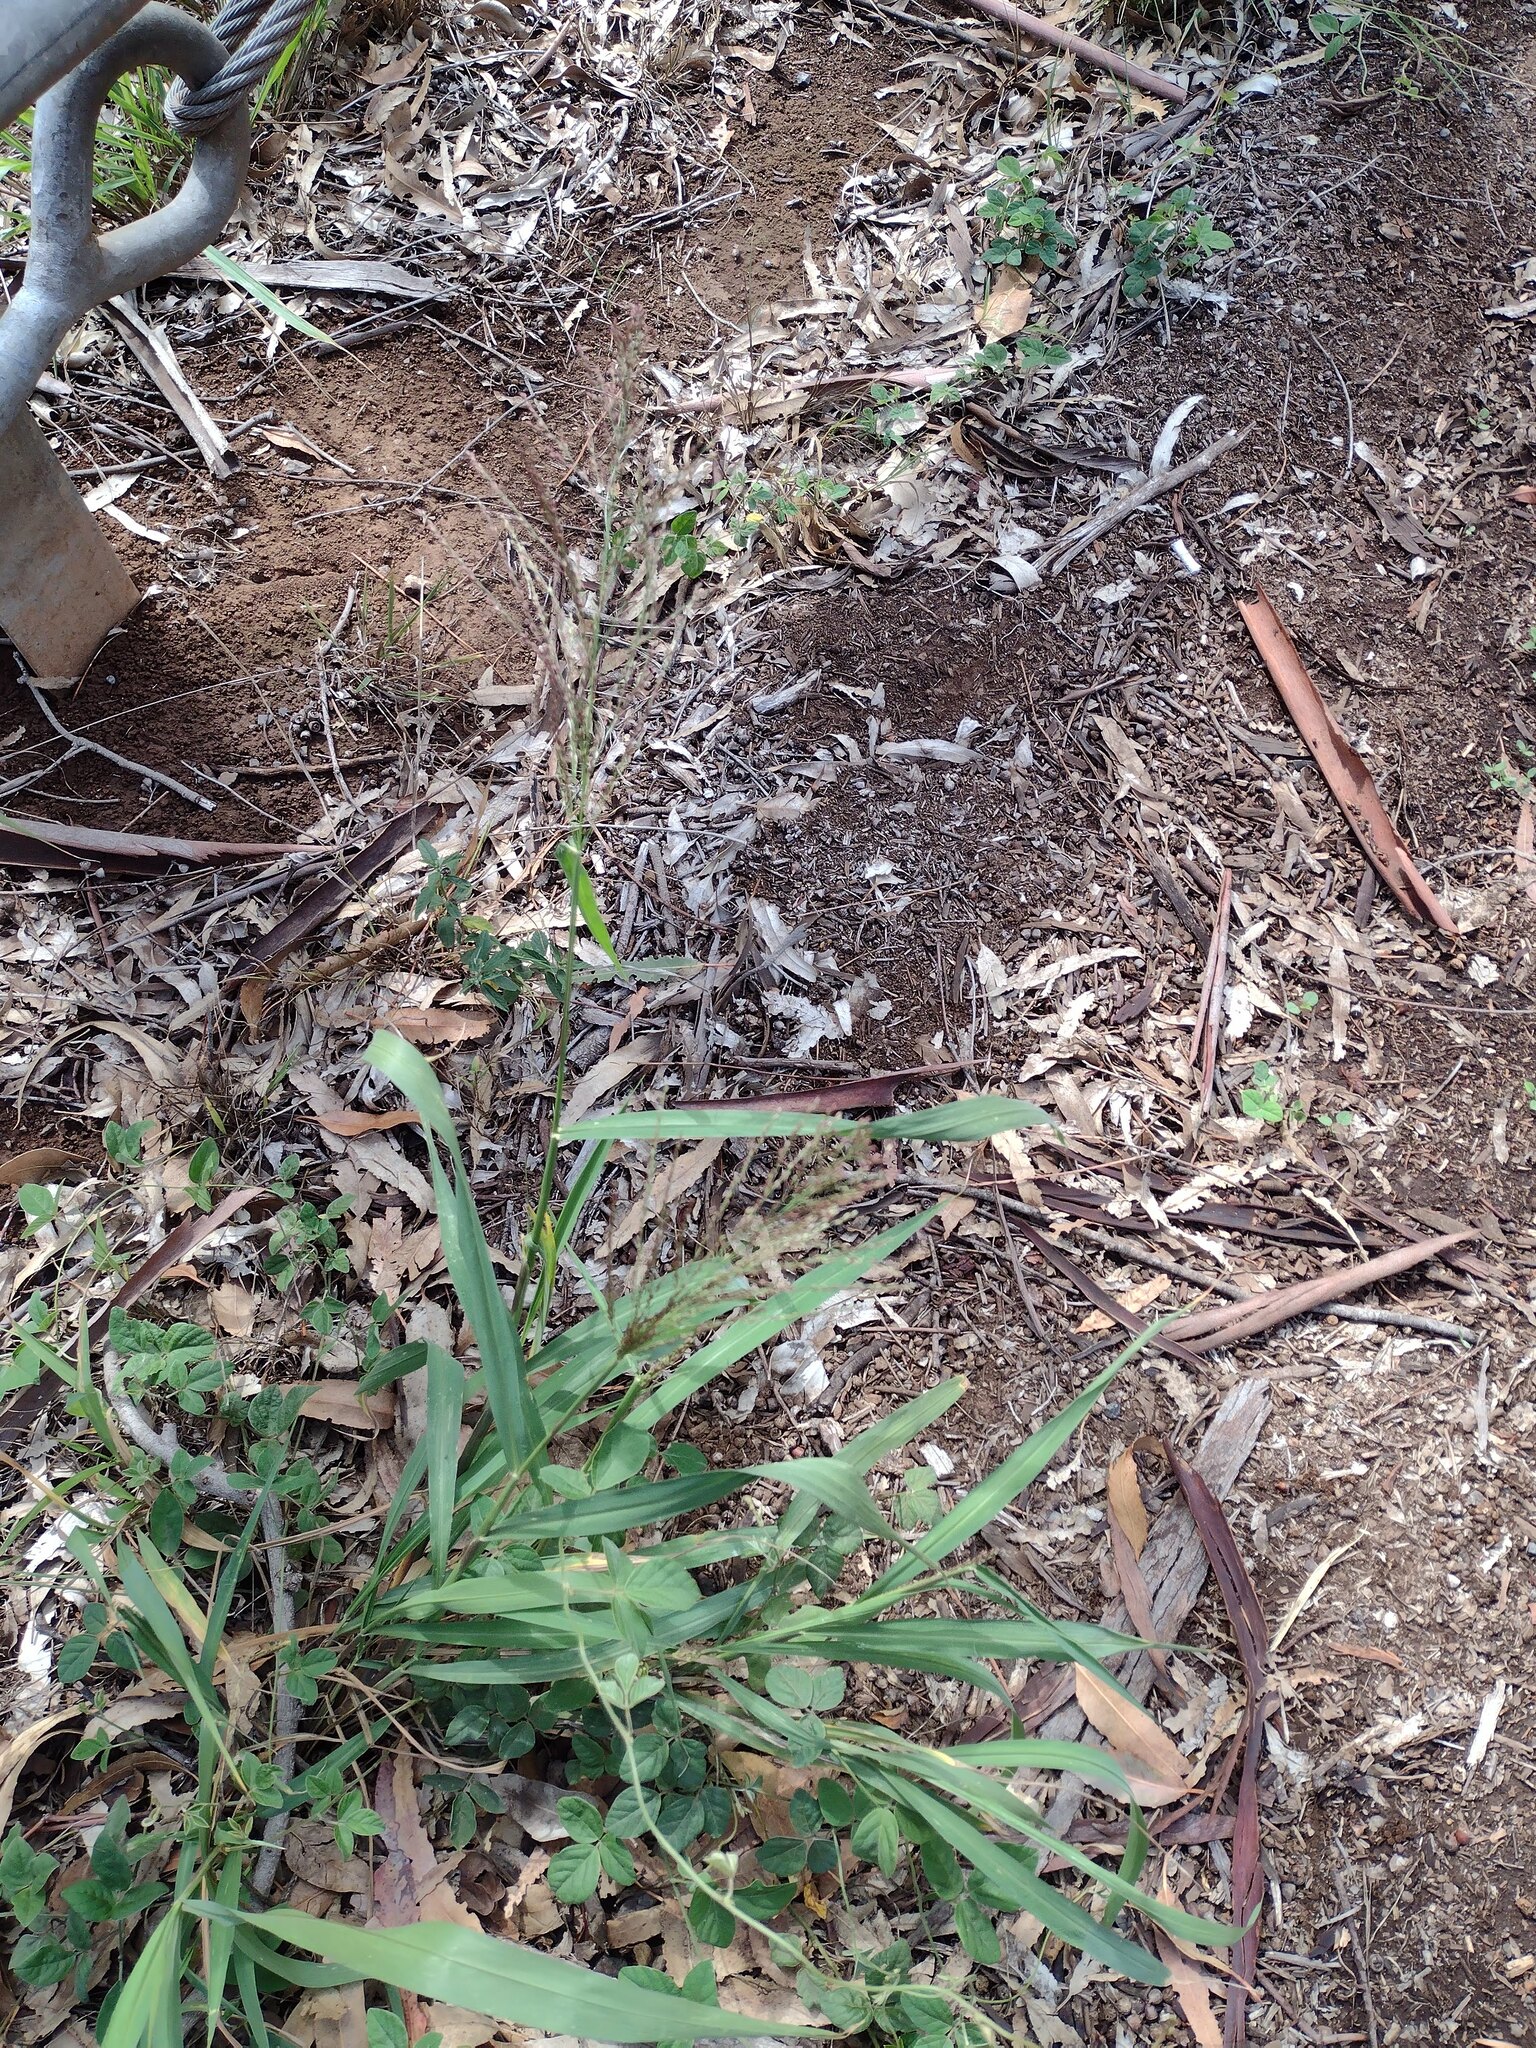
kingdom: Plantae
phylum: Tracheophyta
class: Liliopsida
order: Poales
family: Poaceae
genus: Megathyrsus
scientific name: Megathyrsus maximus
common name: Guineagrass
